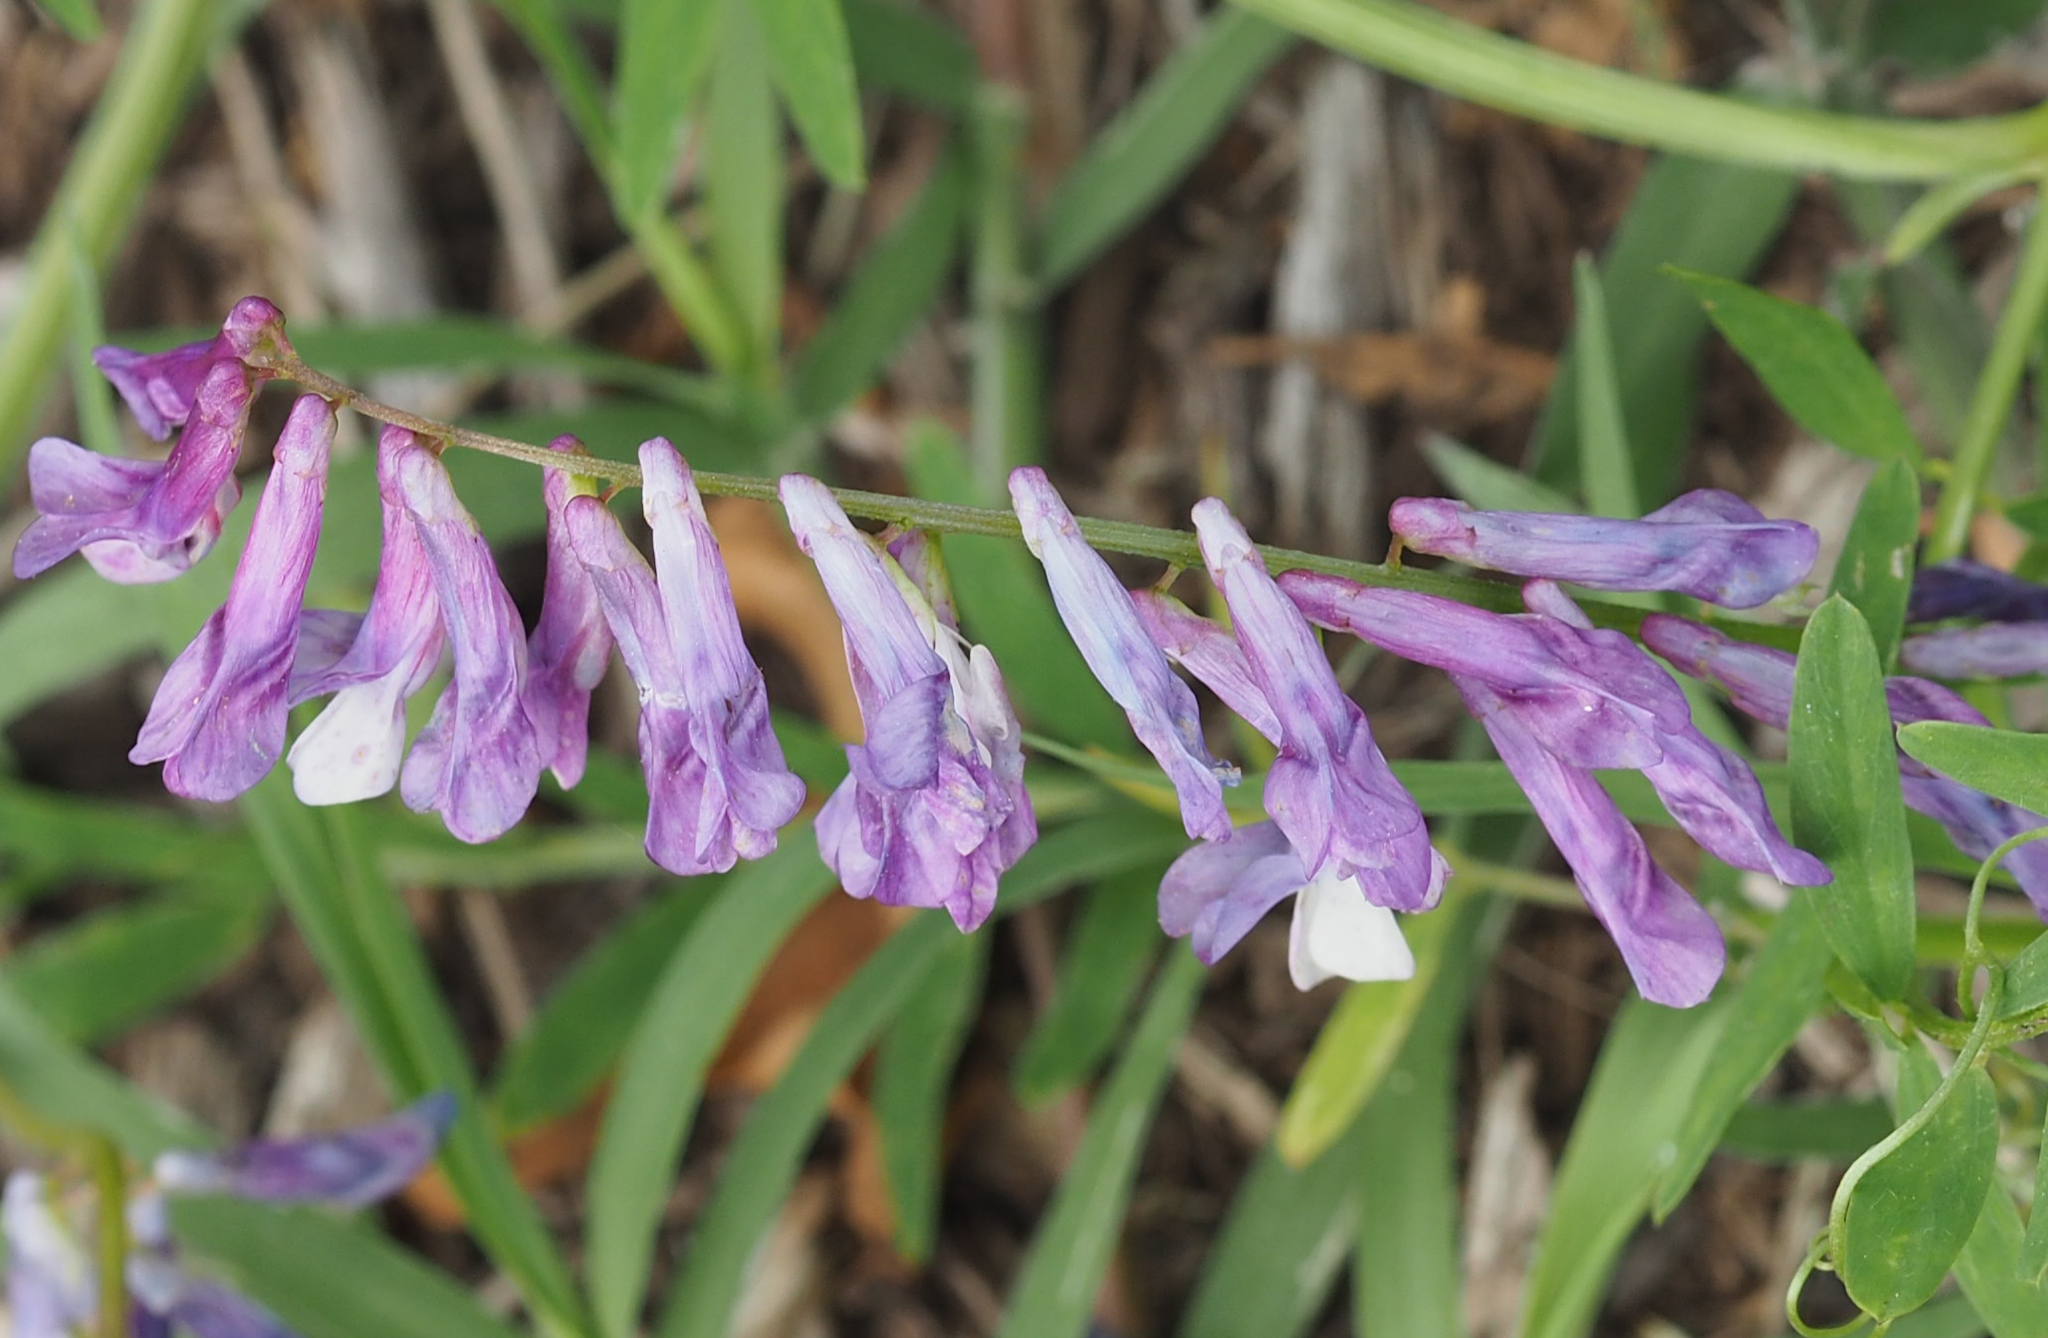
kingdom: Plantae
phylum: Tracheophyta
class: Magnoliopsida
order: Fabales
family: Fabaceae
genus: Vicia
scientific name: Vicia villosa
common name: Fodder vetch
